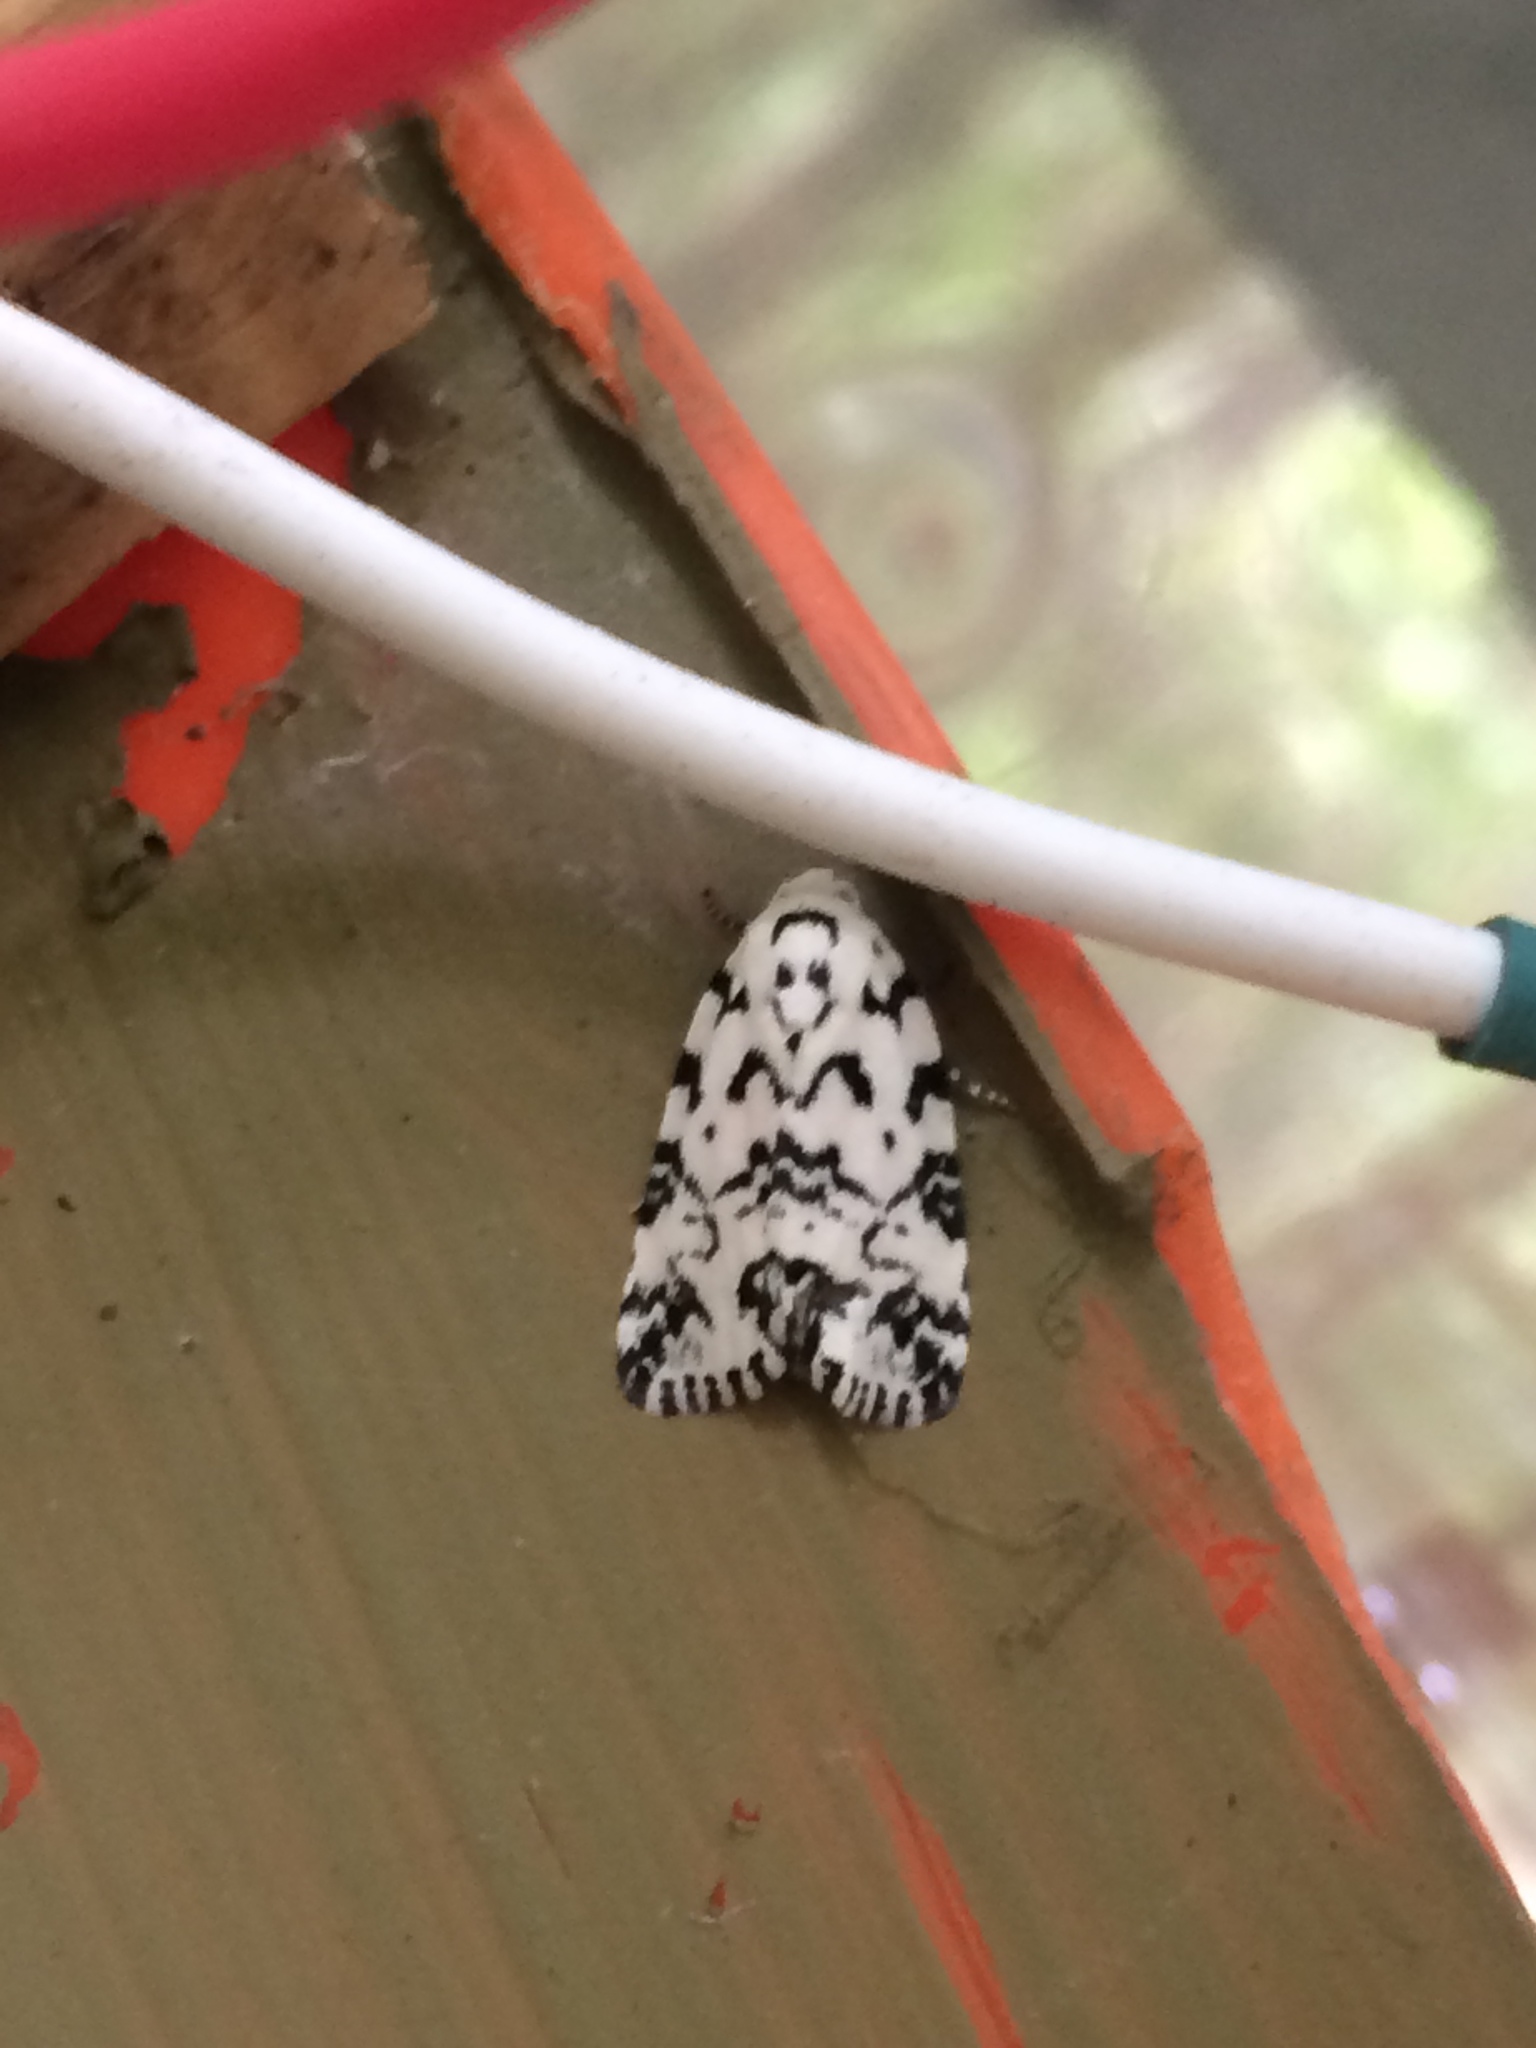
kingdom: Animalia
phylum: Arthropoda
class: Insecta
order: Lepidoptera
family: Noctuidae
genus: Polygrammate
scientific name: Polygrammate hebraeicum
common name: Hebrew moth
